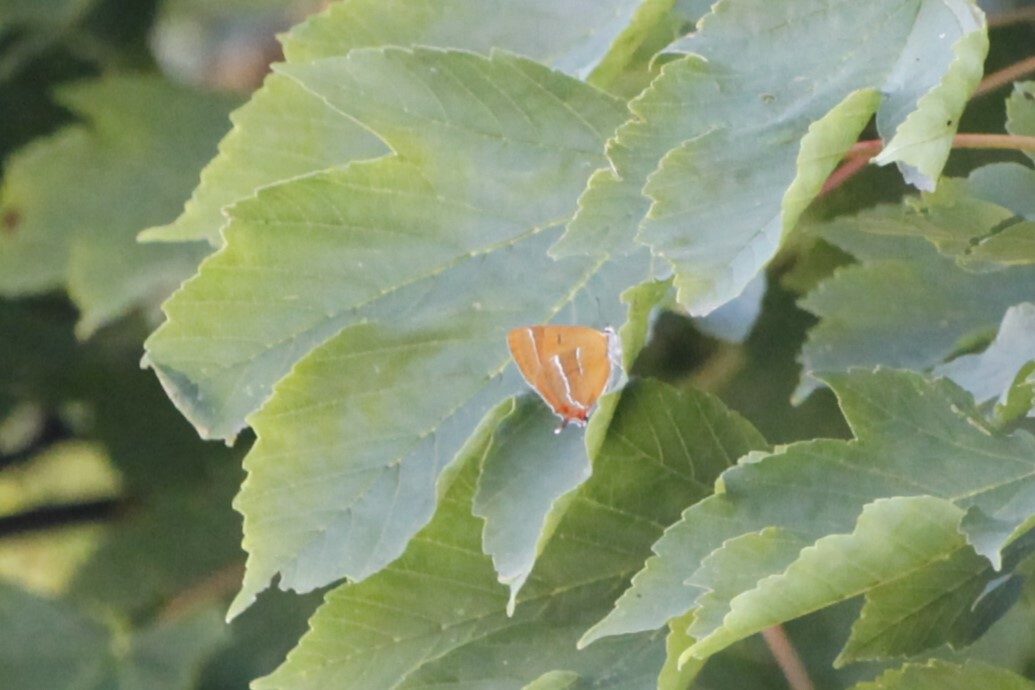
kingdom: Animalia
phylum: Arthropoda
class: Insecta
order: Lepidoptera
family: Lycaenidae
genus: Thecla
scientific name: Thecla betulae
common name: Brown hairstreak
